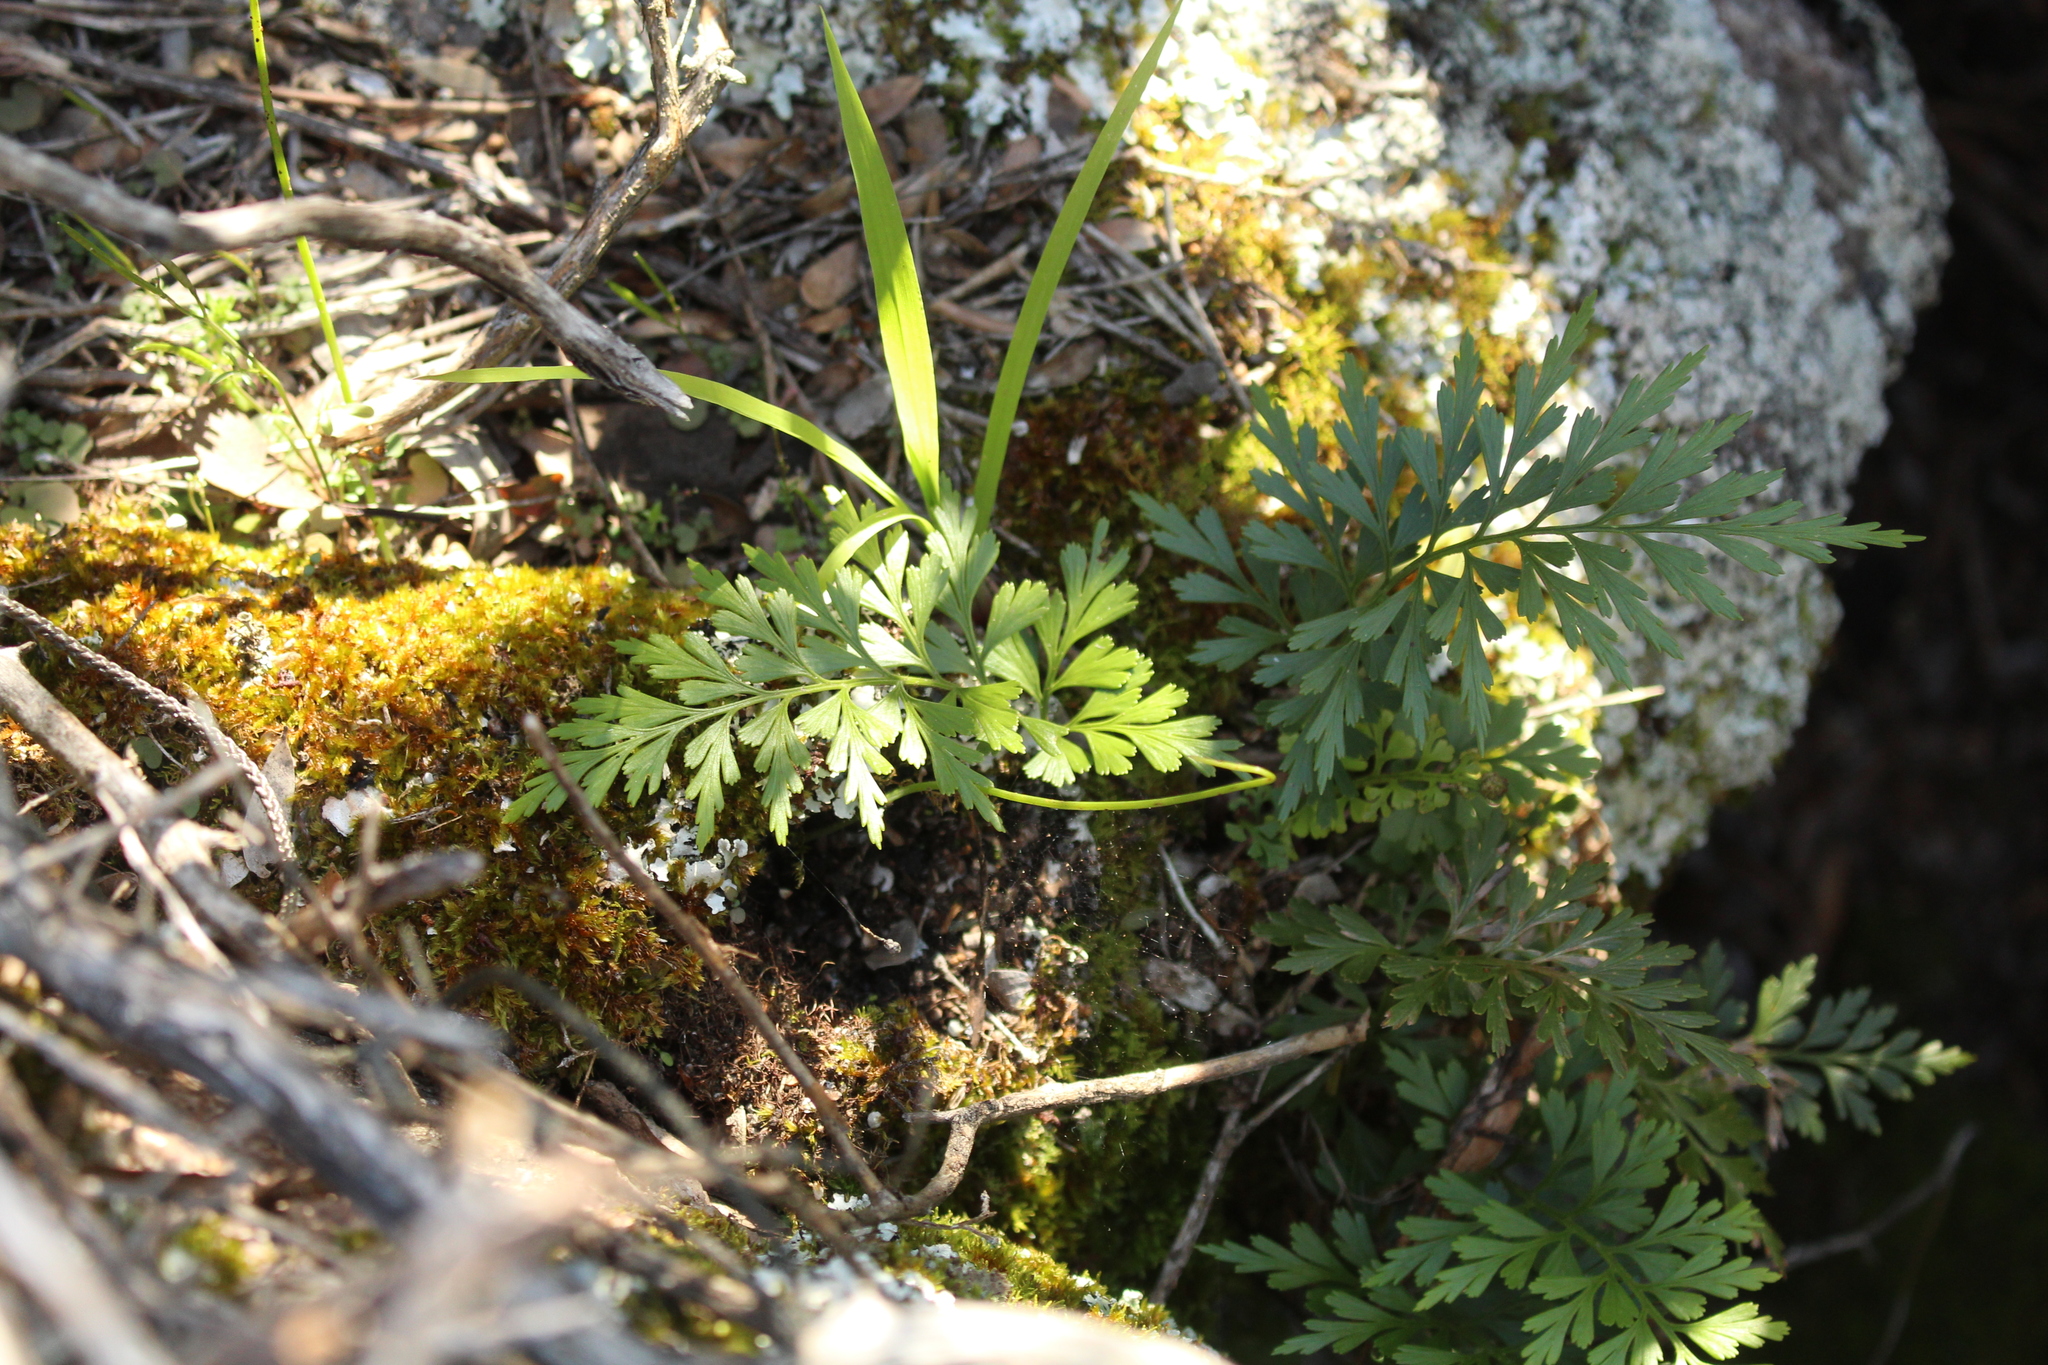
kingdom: Plantae
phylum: Tracheophyta
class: Polypodiopsida
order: Polypodiales
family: Aspleniaceae
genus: Asplenium
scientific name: Asplenium aethiopicum
